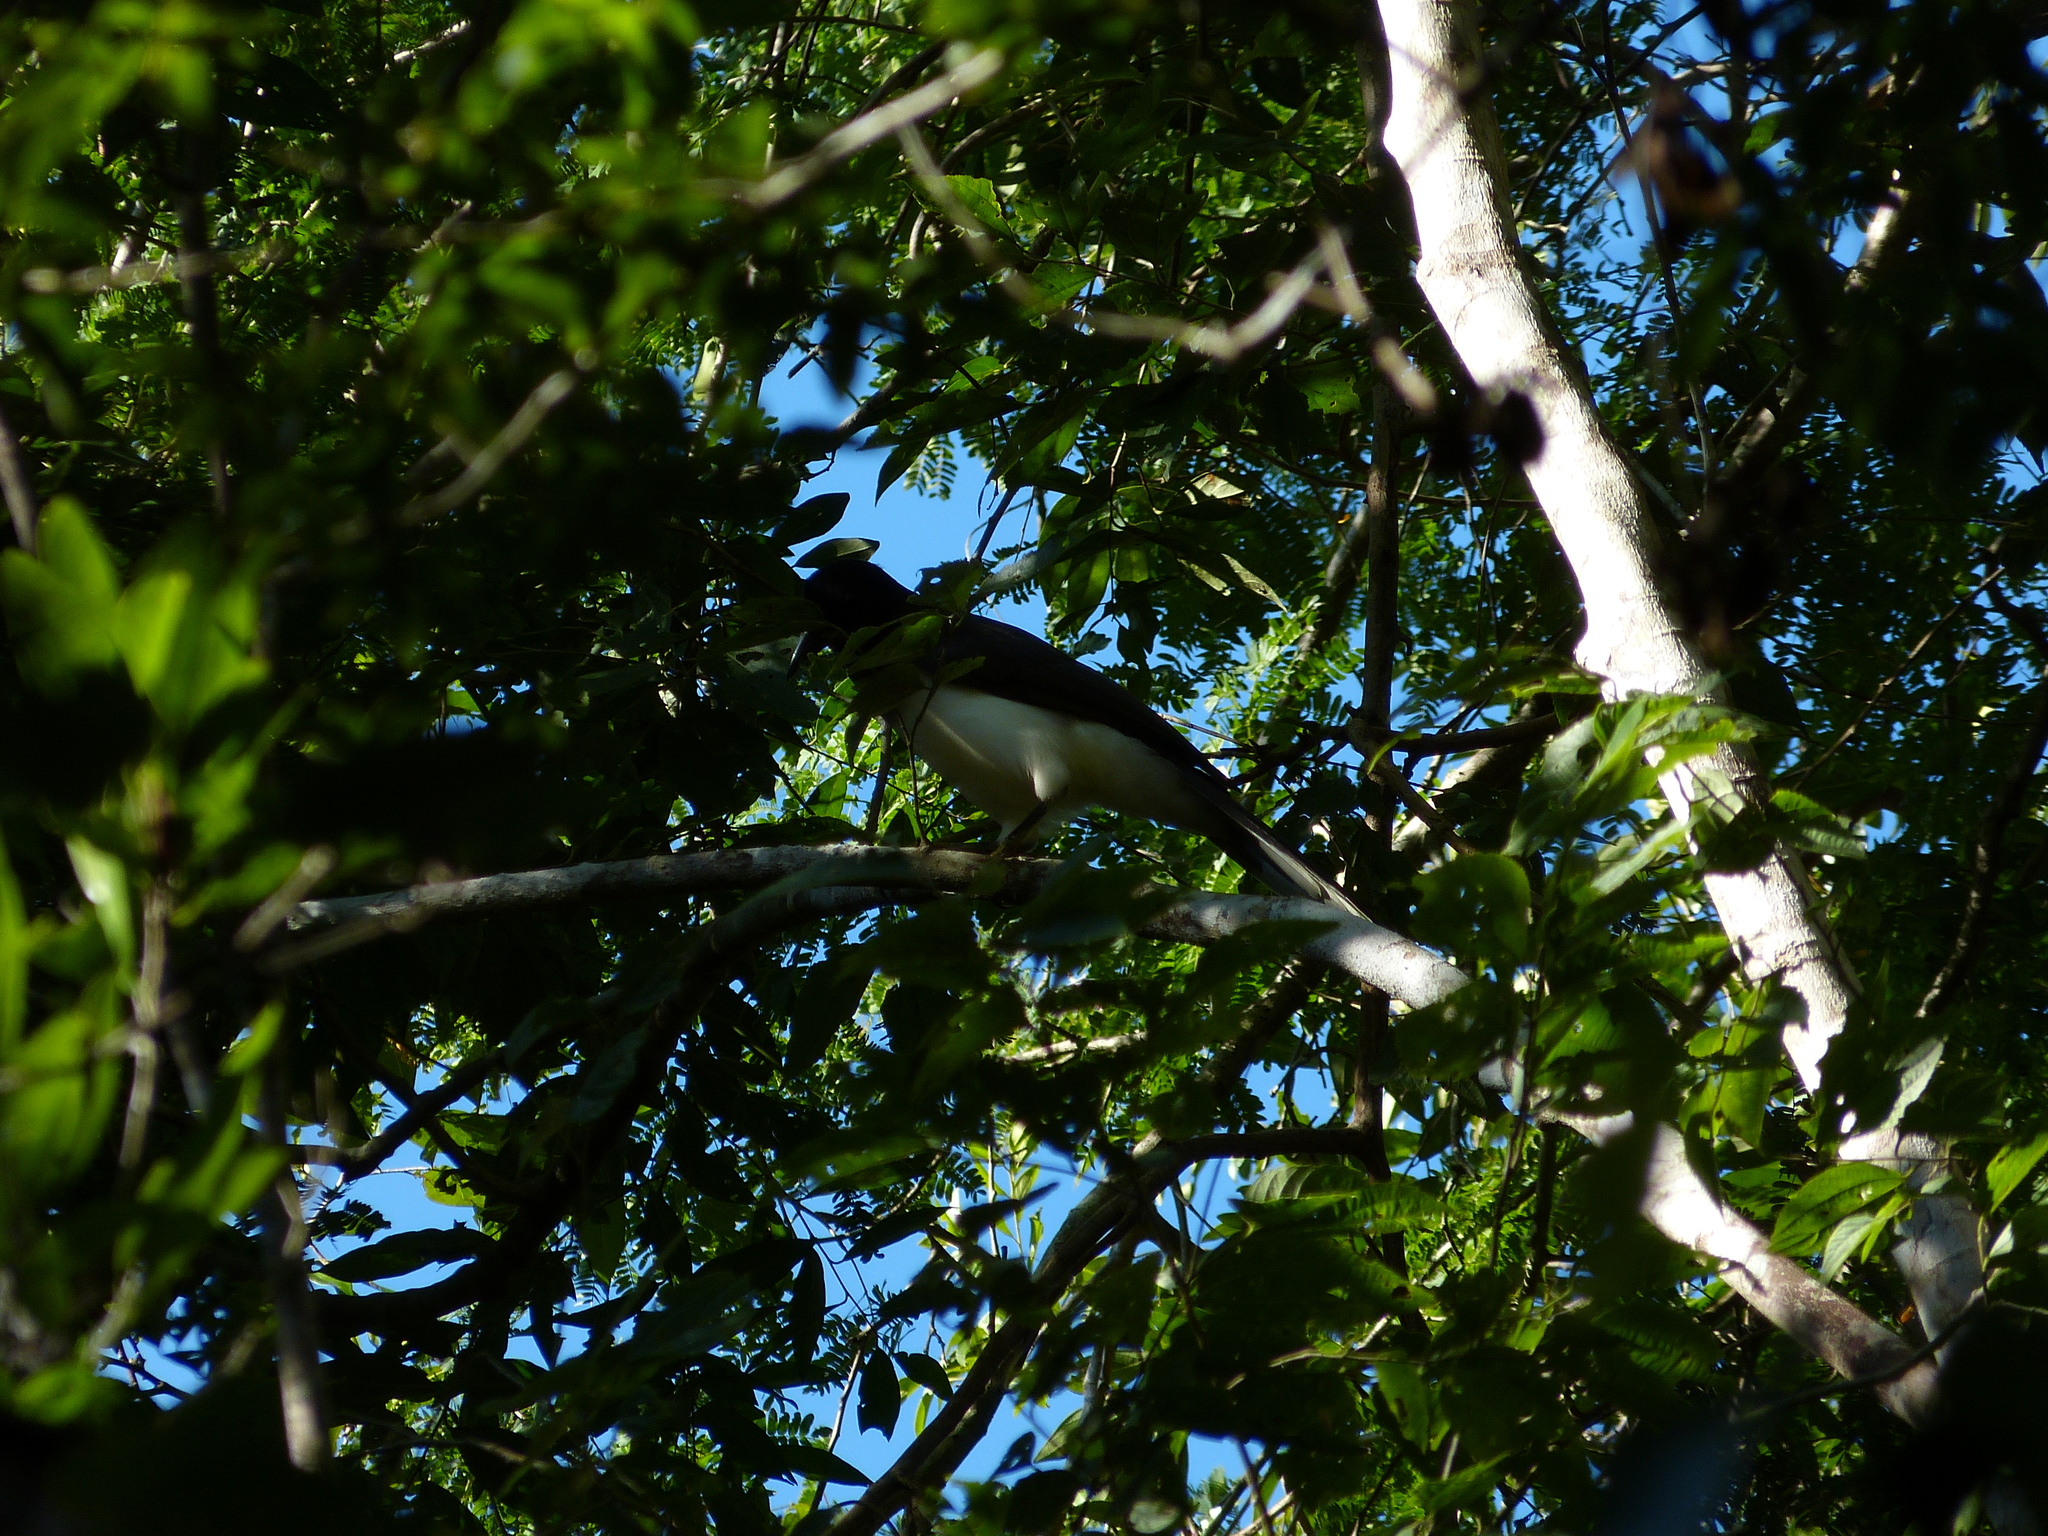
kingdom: Animalia
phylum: Chordata
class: Aves
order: Passeriformes
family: Corvidae
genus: Psilorhinus
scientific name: Psilorhinus morio
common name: Brown jay
